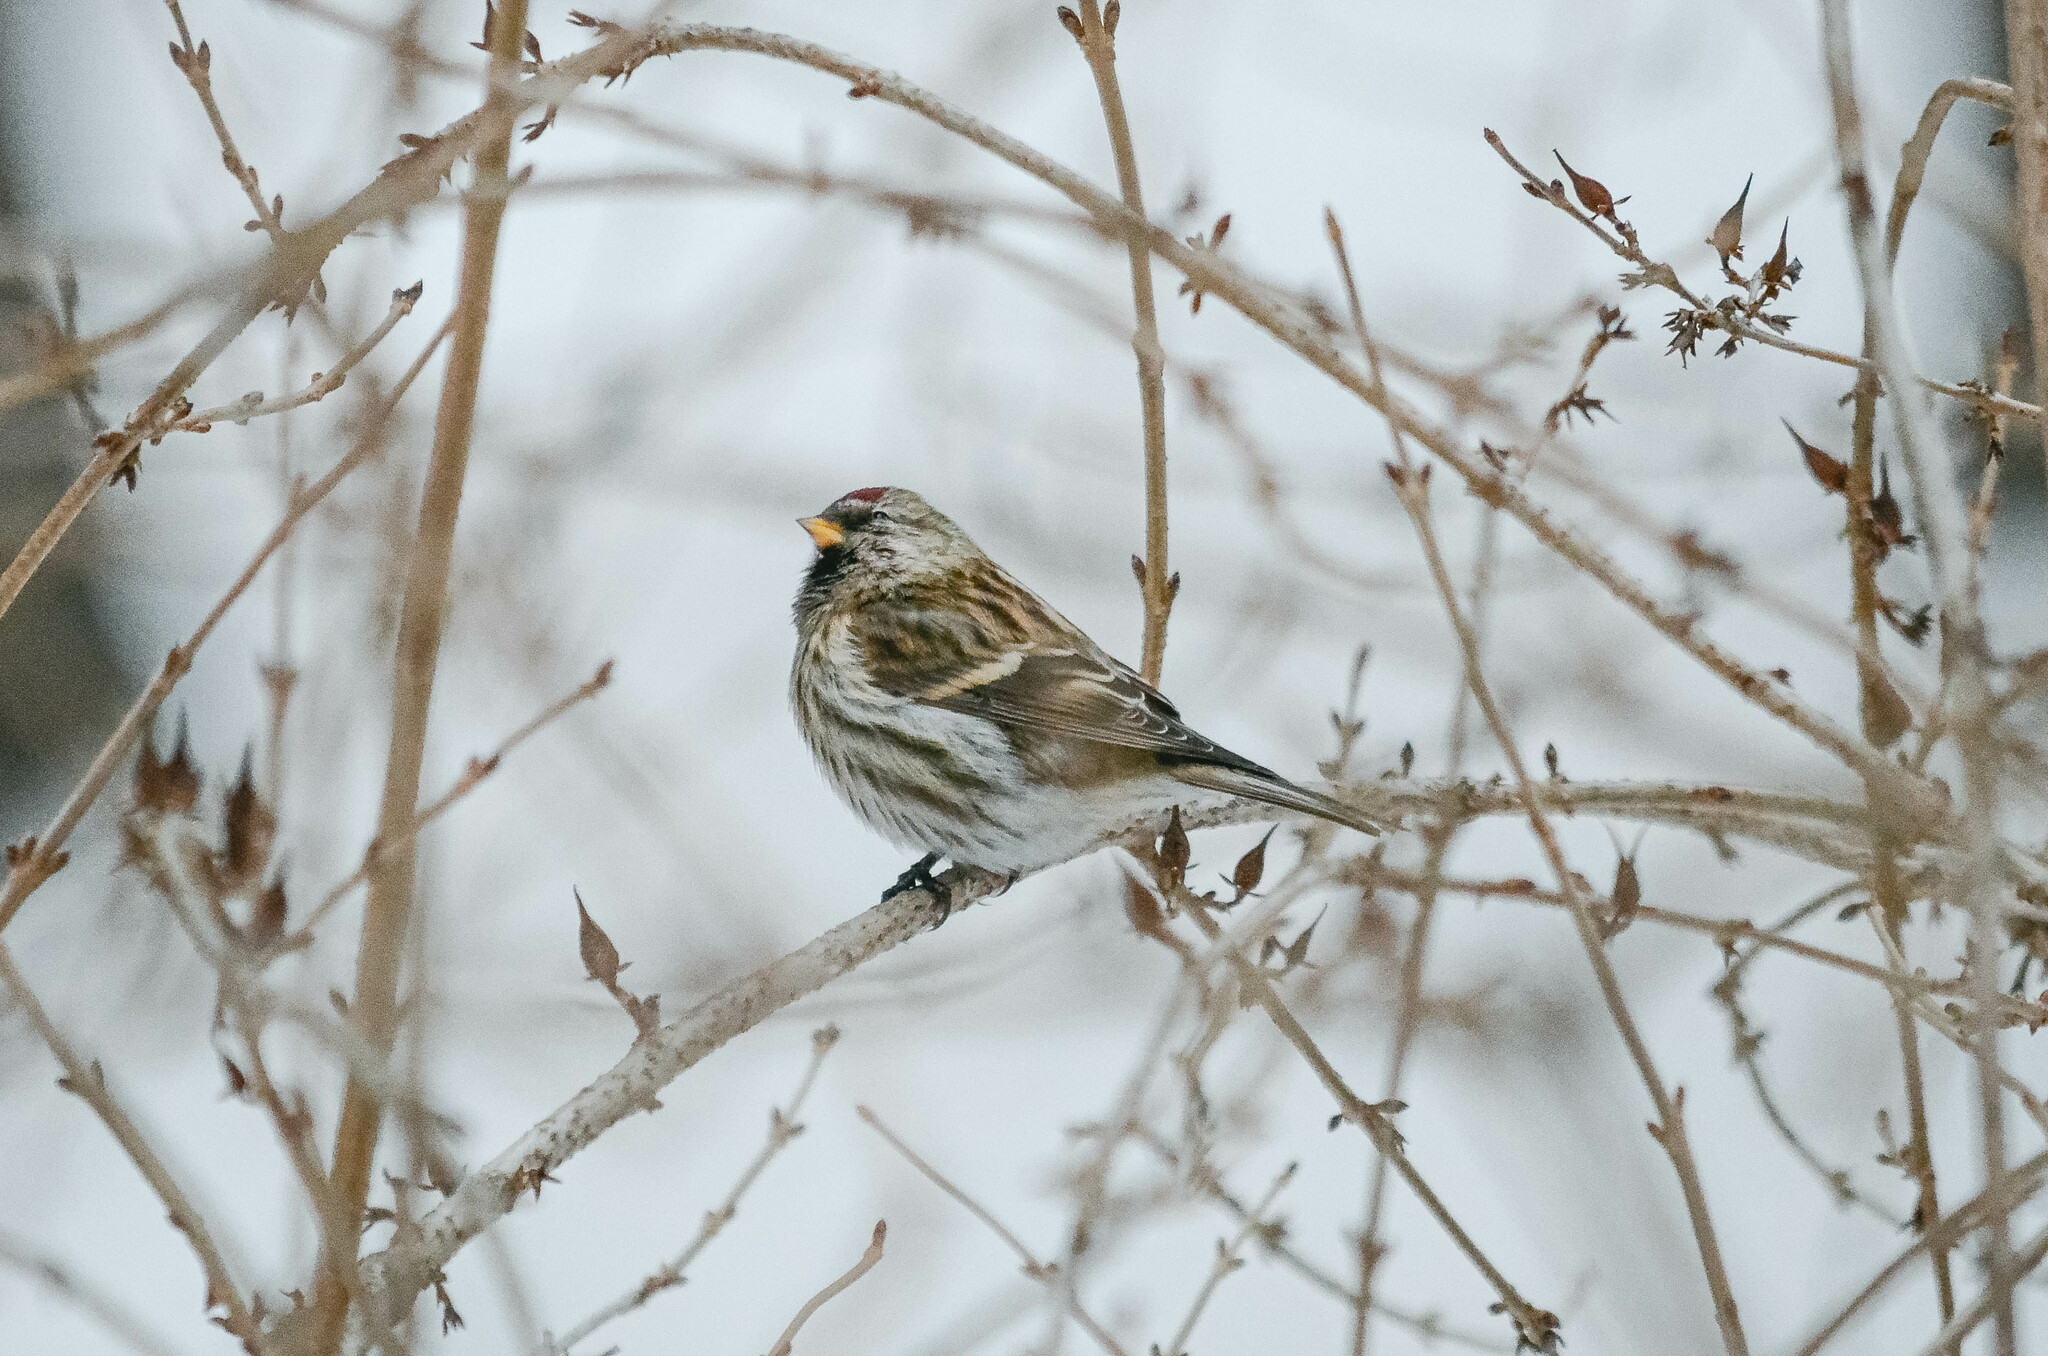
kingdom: Animalia
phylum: Chordata
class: Aves
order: Passeriformes
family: Fringillidae
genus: Acanthis
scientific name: Acanthis flammea
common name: Common redpoll
